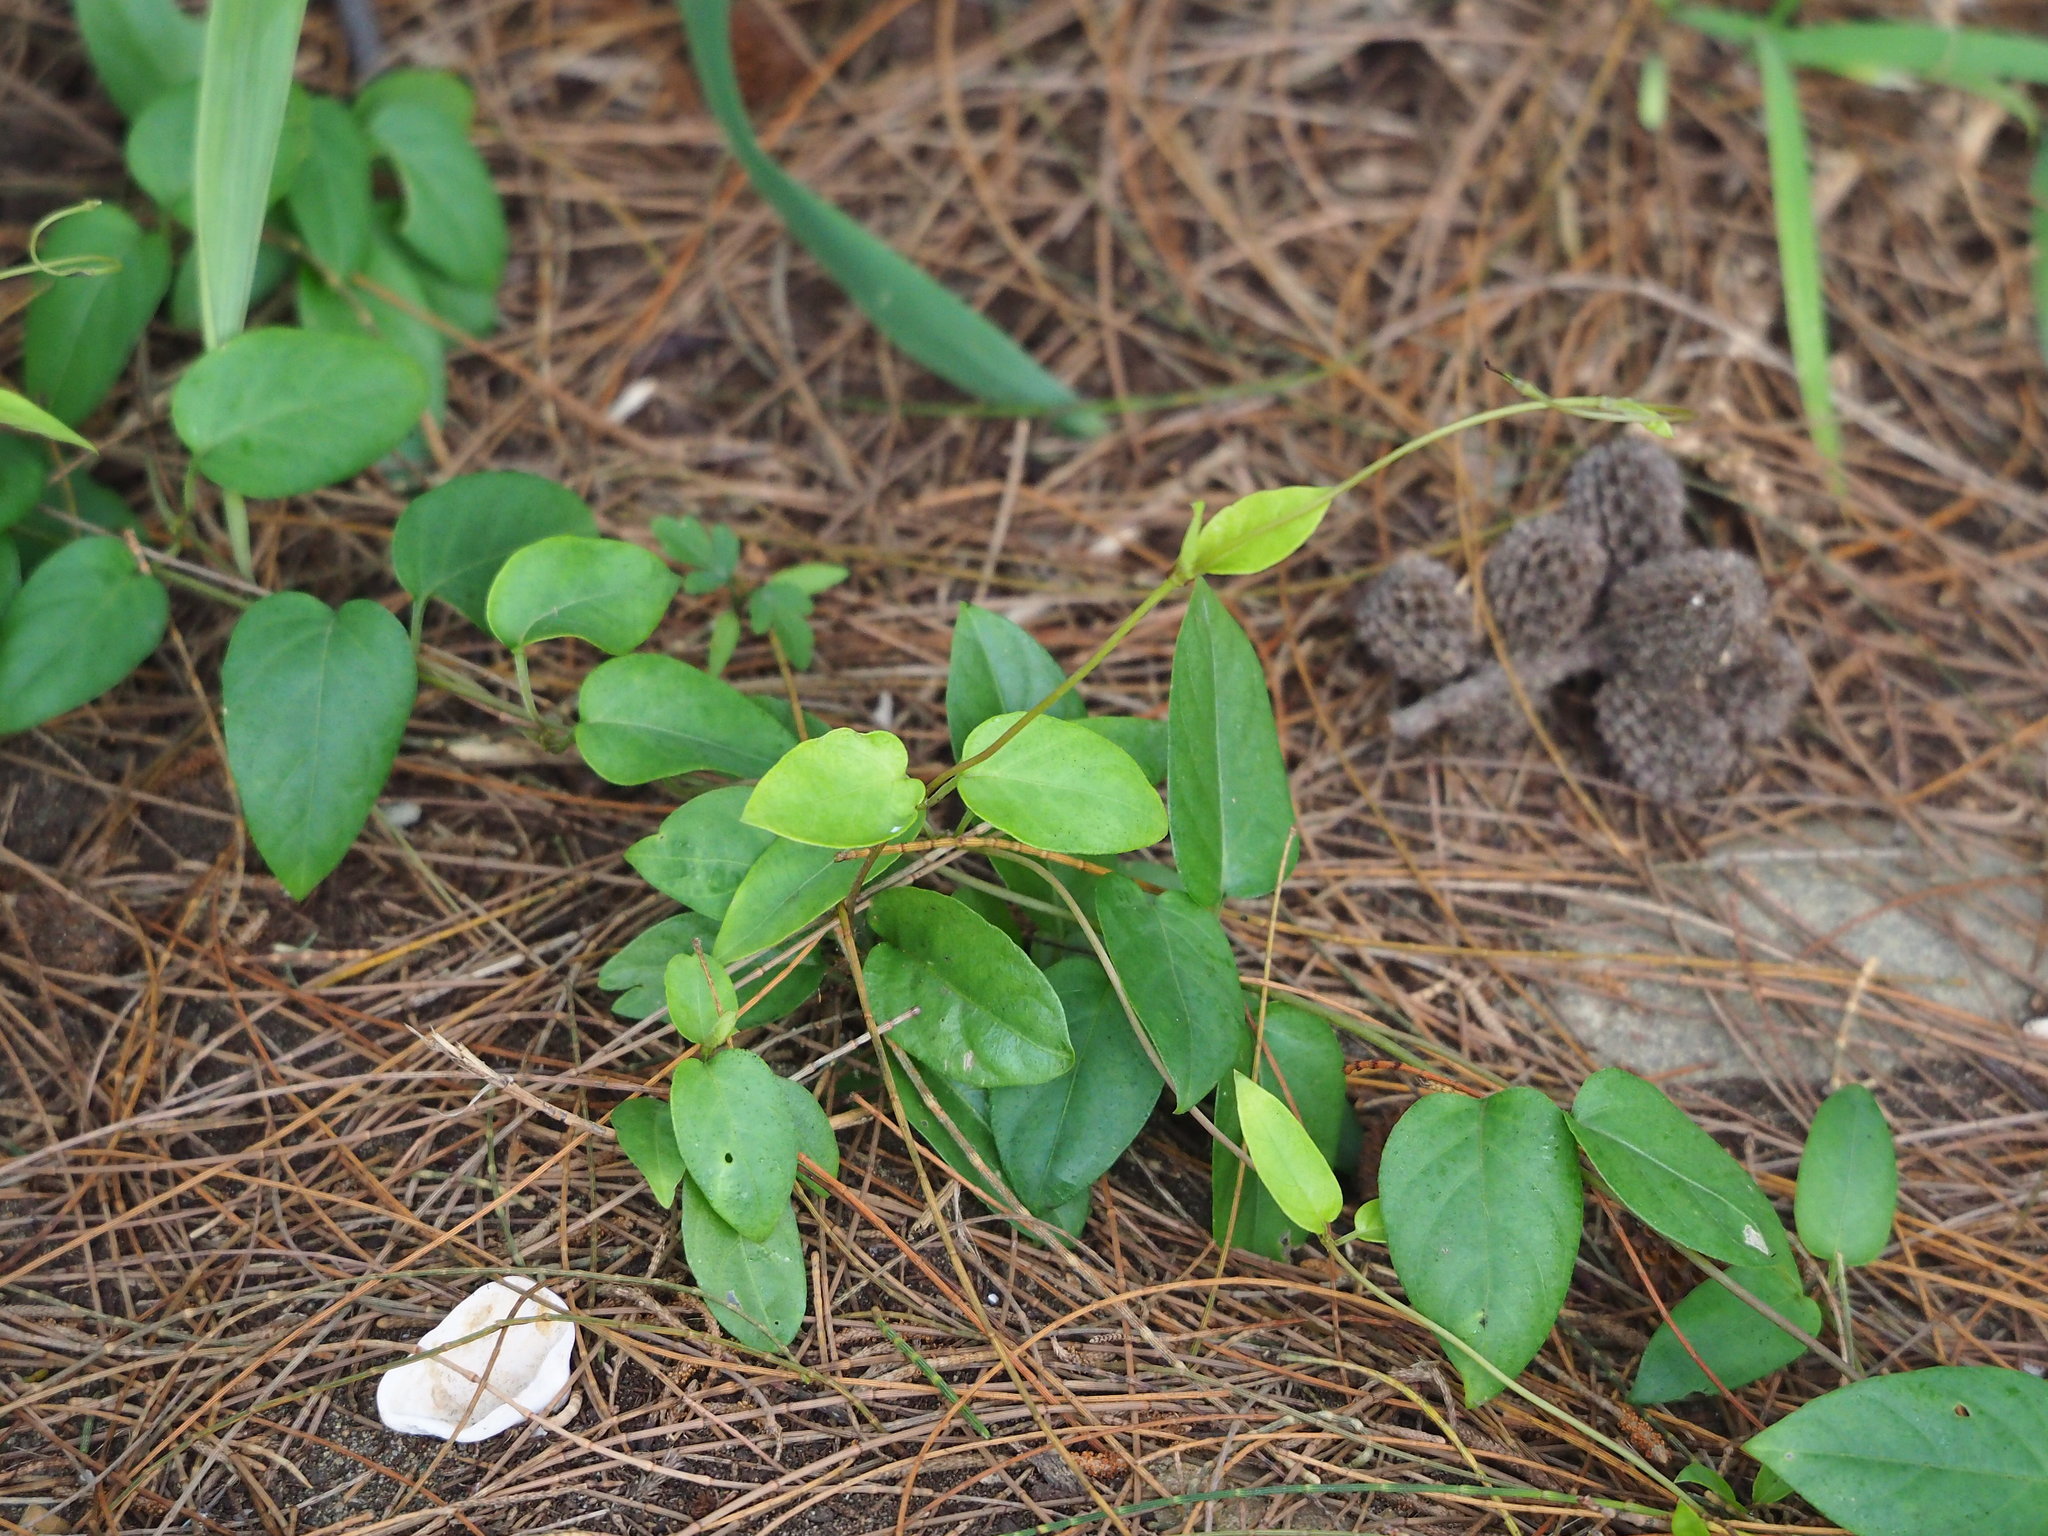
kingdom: Plantae
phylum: Tracheophyta
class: Magnoliopsida
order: Gentianales
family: Rubiaceae
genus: Paederia
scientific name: Paederia foetida
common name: Stinkvine
